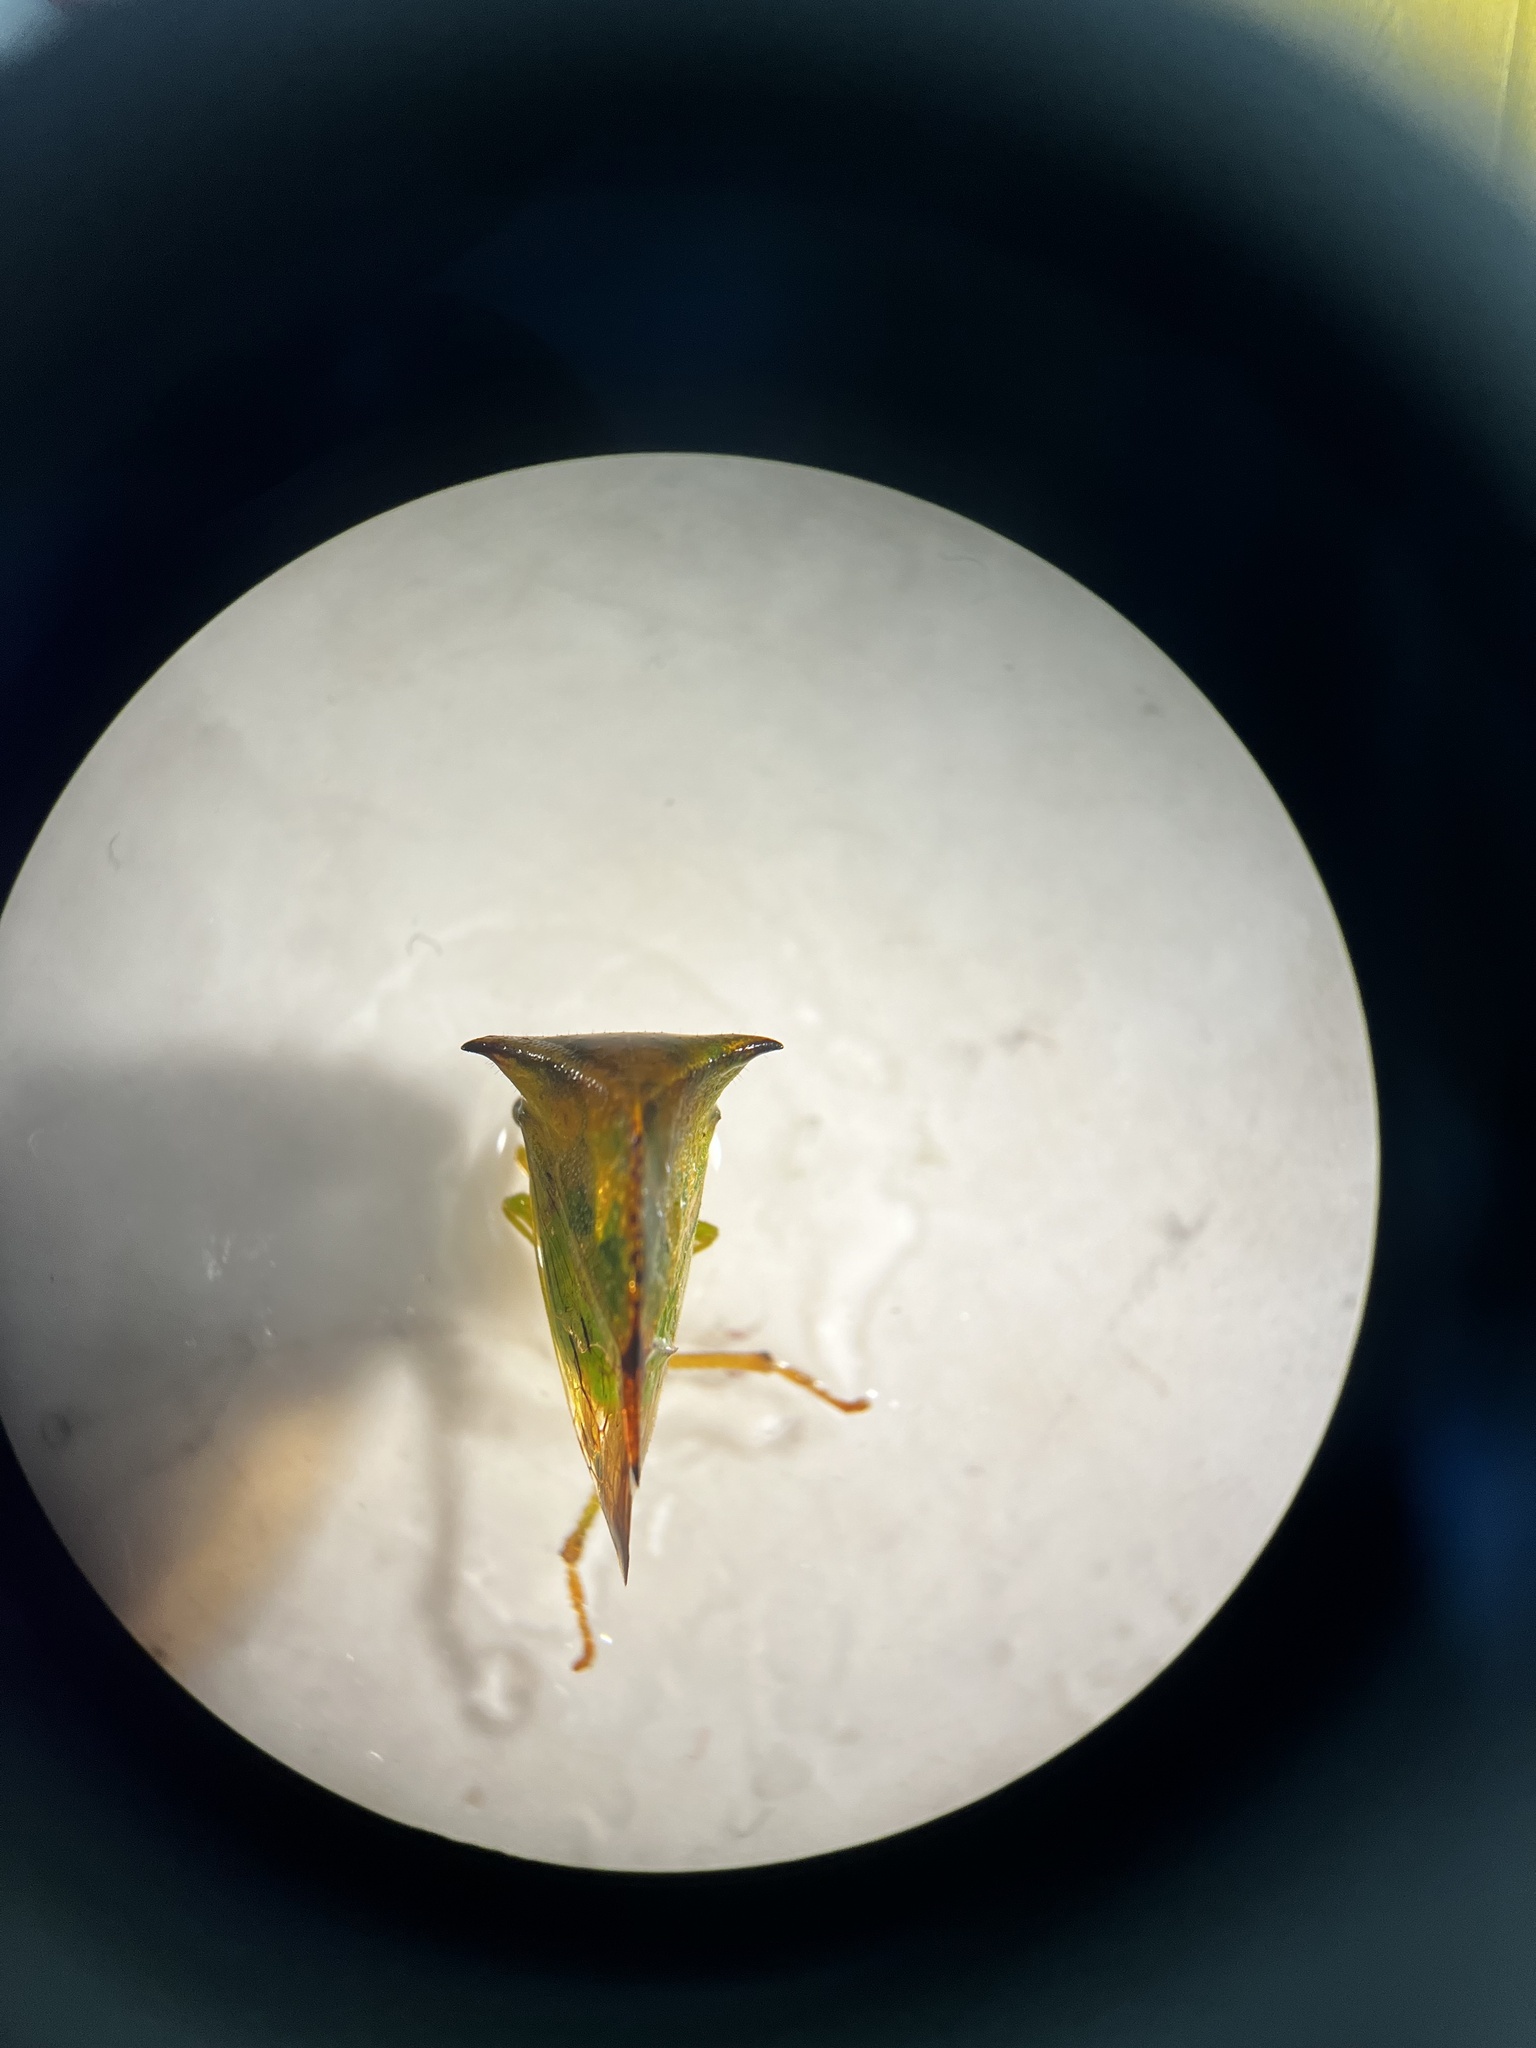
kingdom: Animalia
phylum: Arthropoda
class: Insecta
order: Hemiptera
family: Membracidae
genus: Stictocephala
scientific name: Stictocephala bisonia
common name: American buffalo treehopper
